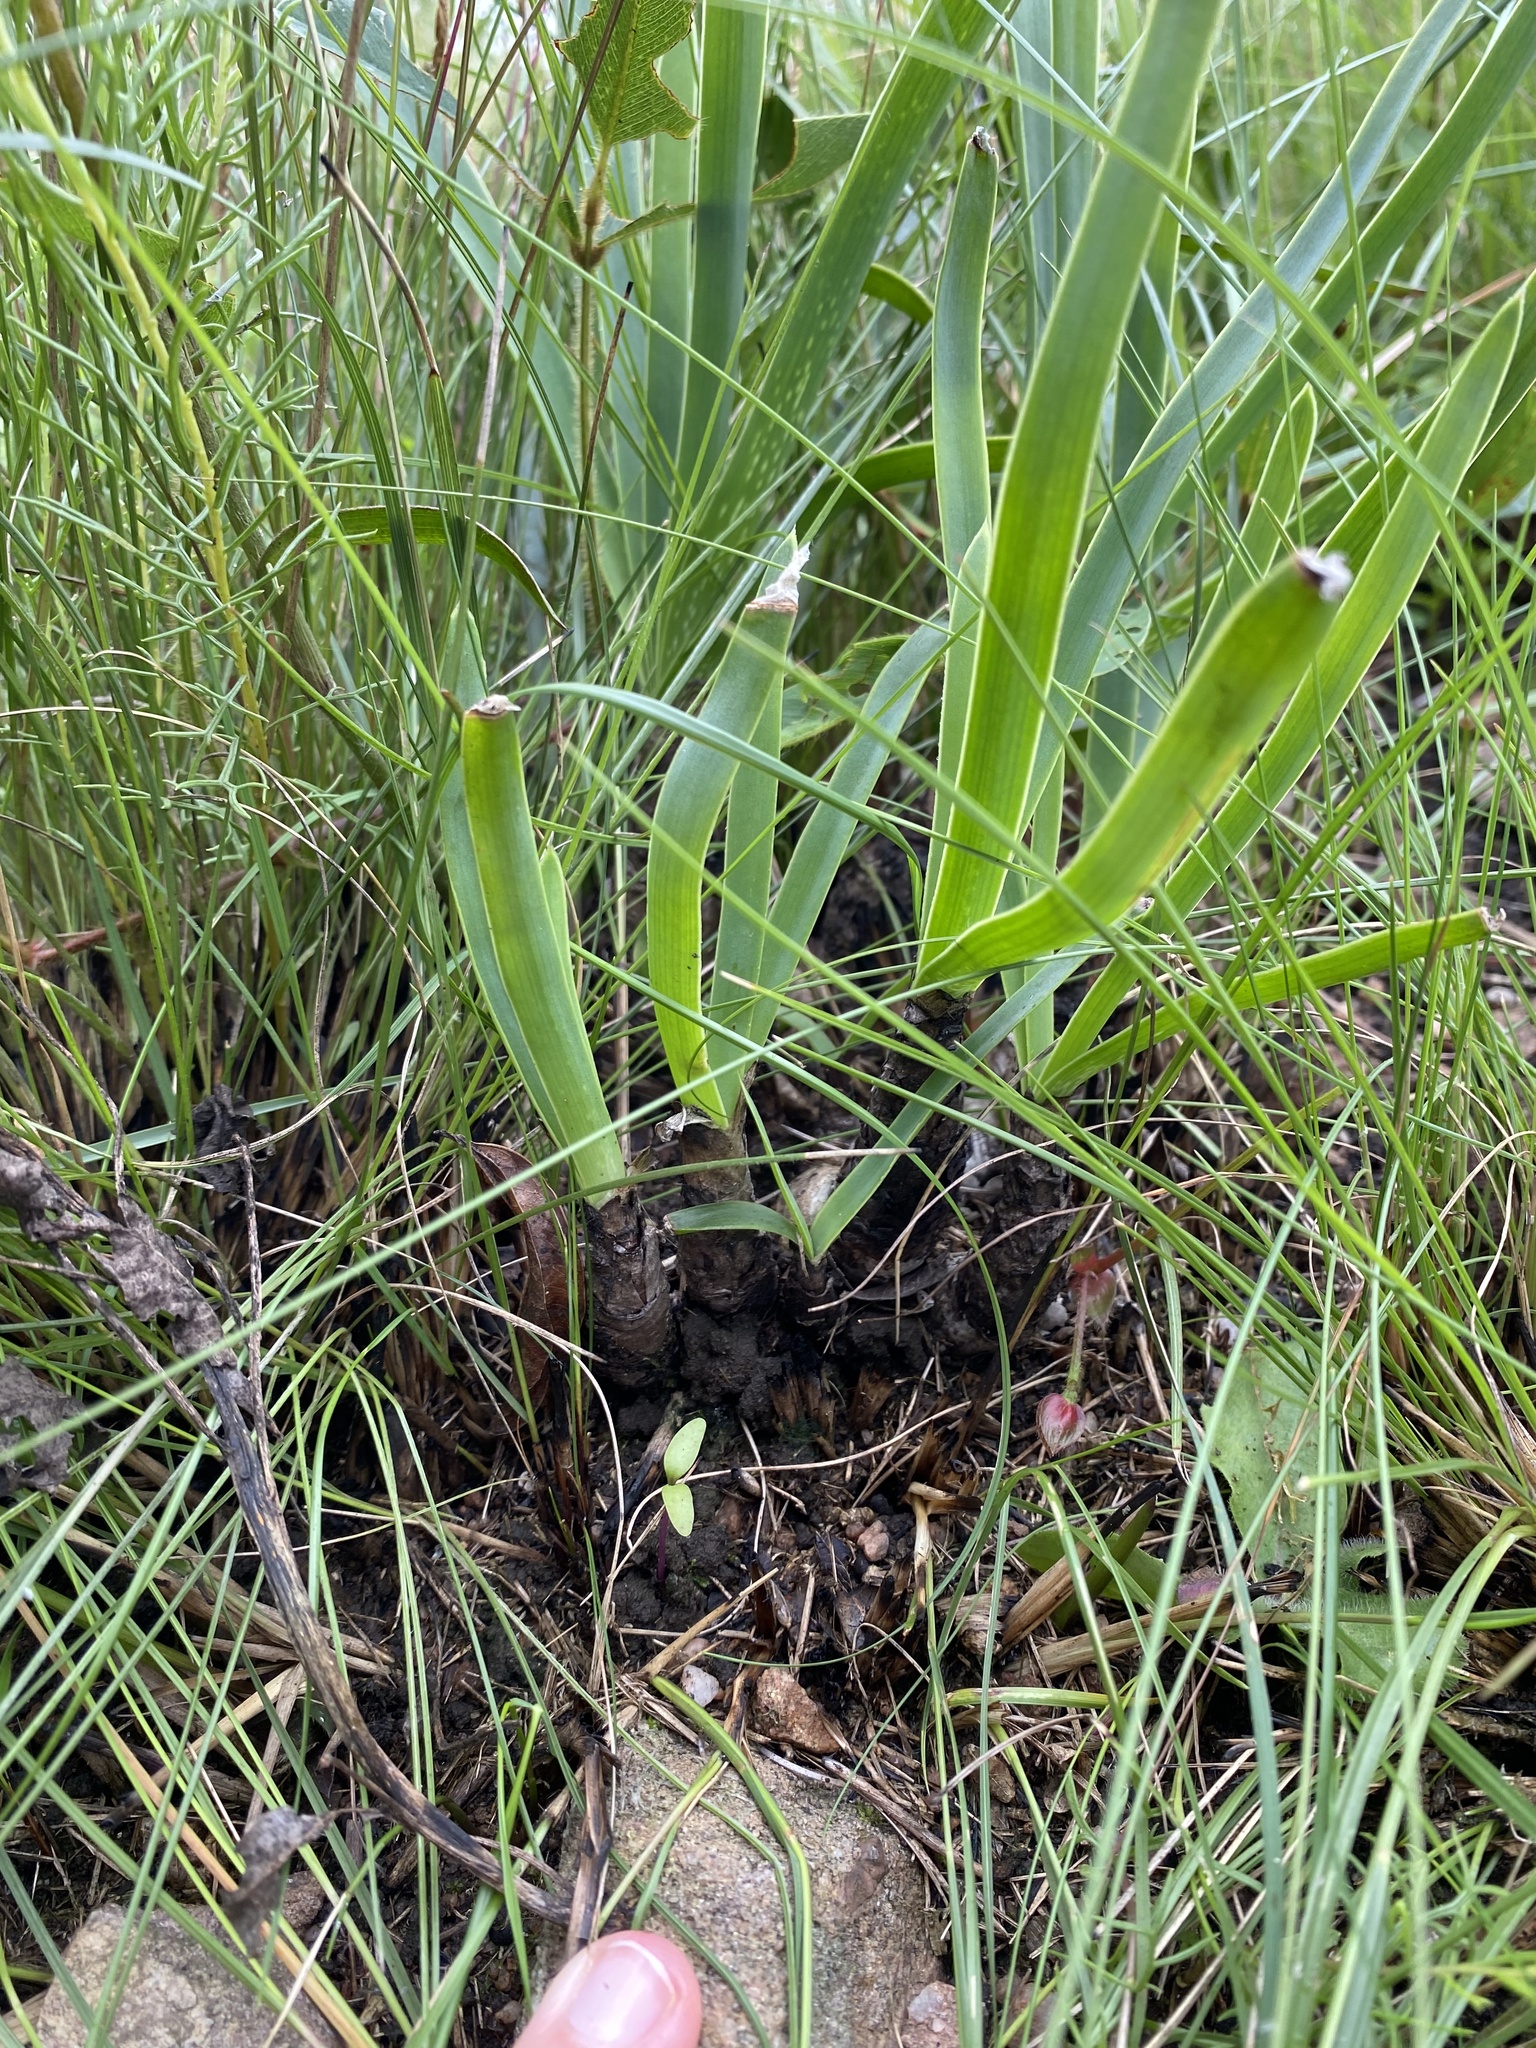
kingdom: Plantae
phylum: Tracheophyta
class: Liliopsida
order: Asparagales
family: Asphodelaceae
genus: Aloe
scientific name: Aloe cooperi
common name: Cooper's aloe
